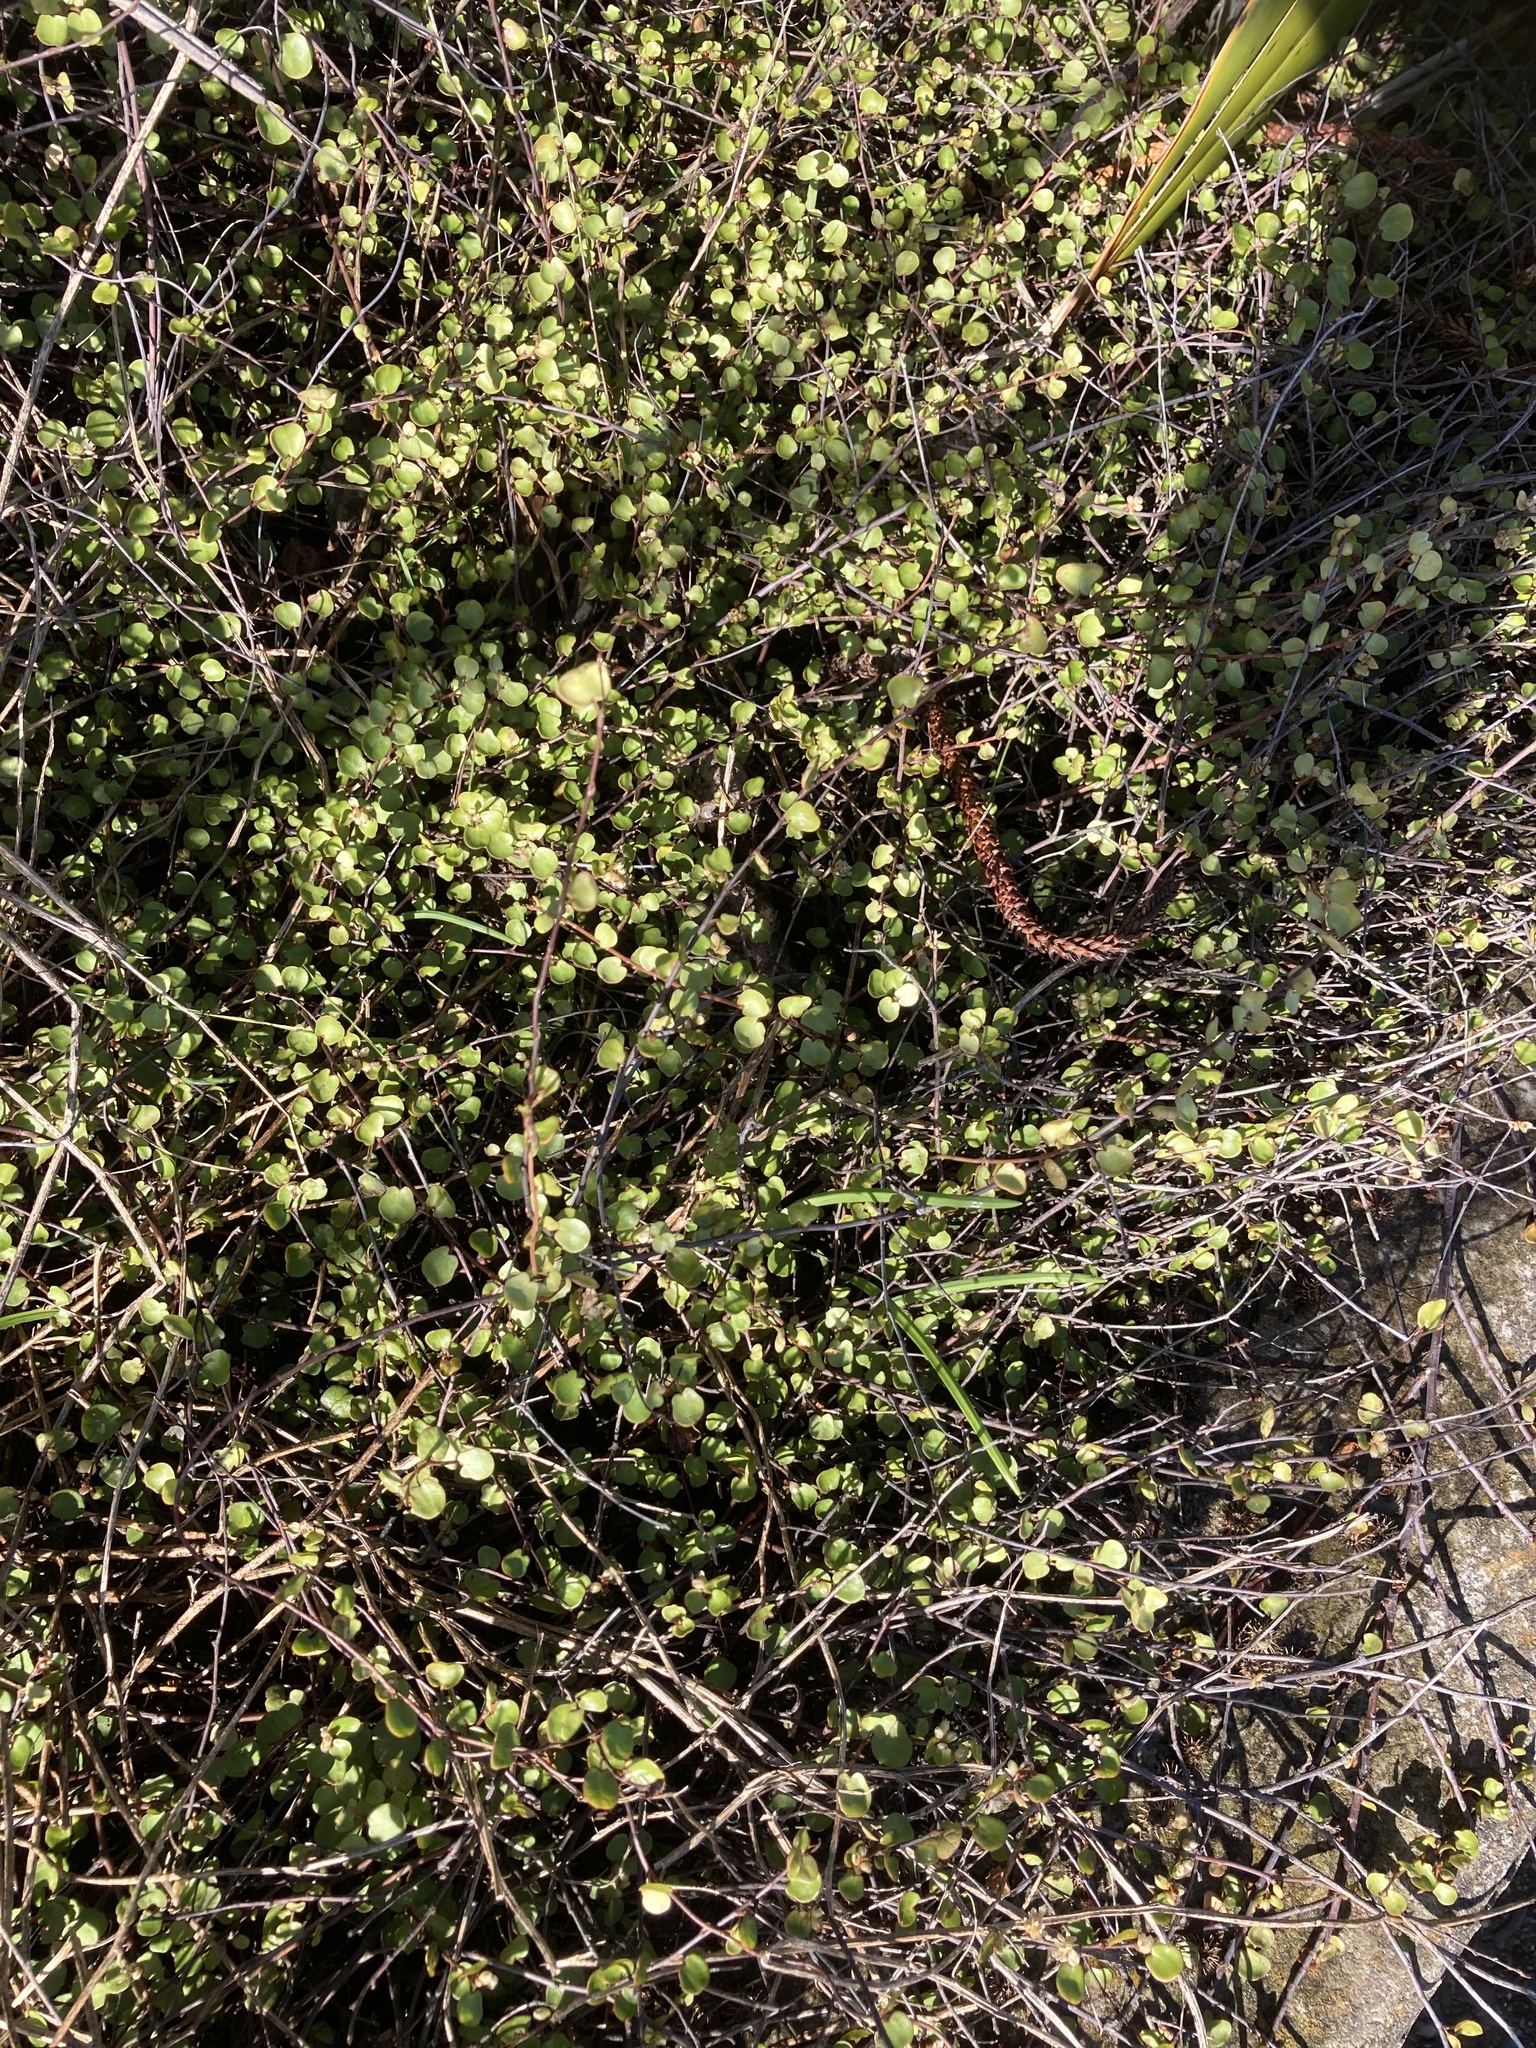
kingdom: Plantae
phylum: Tracheophyta
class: Magnoliopsida
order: Caryophyllales
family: Polygonaceae
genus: Muehlenbeckia
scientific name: Muehlenbeckia complexa
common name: Wireplant
